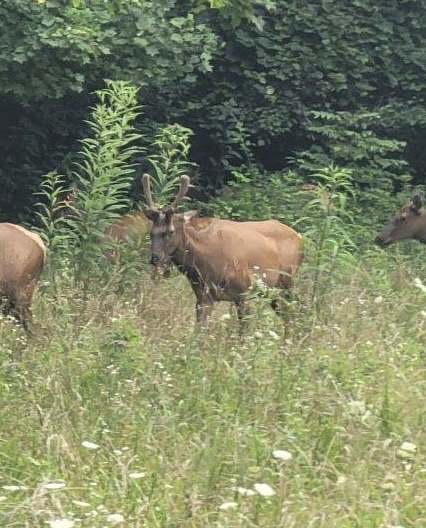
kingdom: Animalia
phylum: Chordata
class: Mammalia
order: Artiodactyla
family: Cervidae
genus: Cervus
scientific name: Cervus elaphus
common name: Red deer
